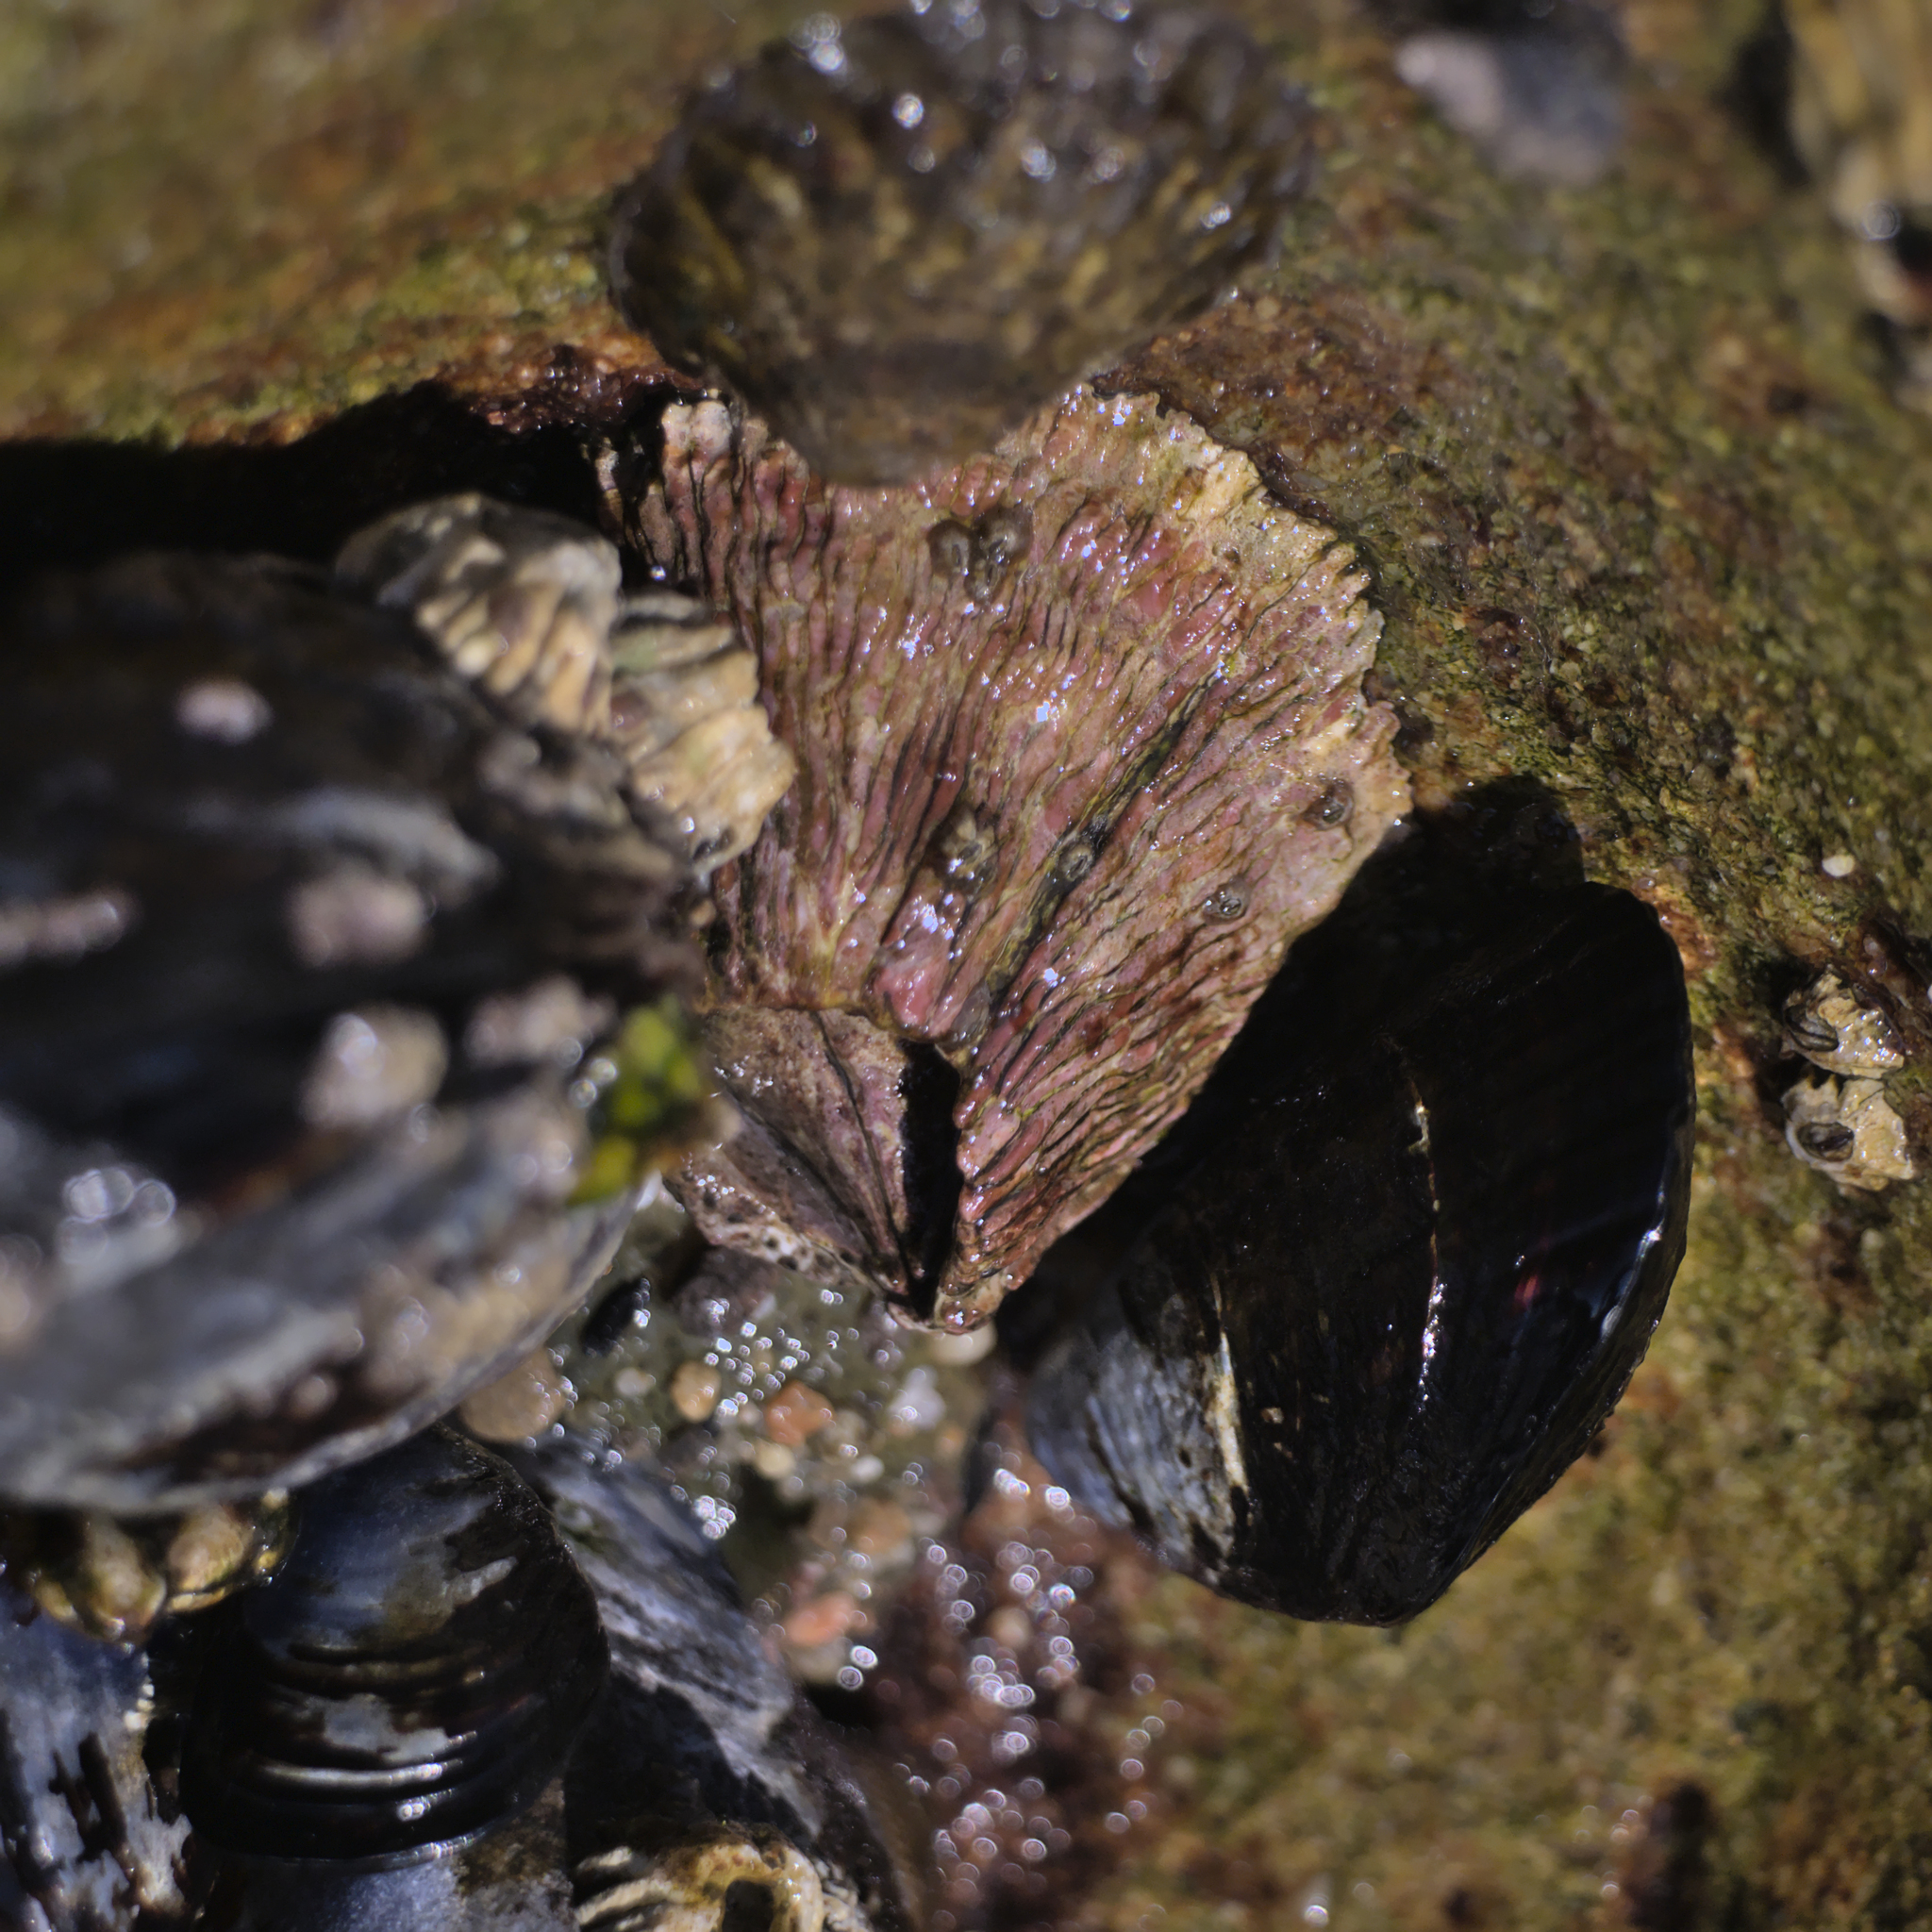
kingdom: Animalia
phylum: Arthropoda
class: Maxillopoda
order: Sessilia
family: Tetraclitidae
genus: Tetraclita
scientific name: Tetraclita rubescens
